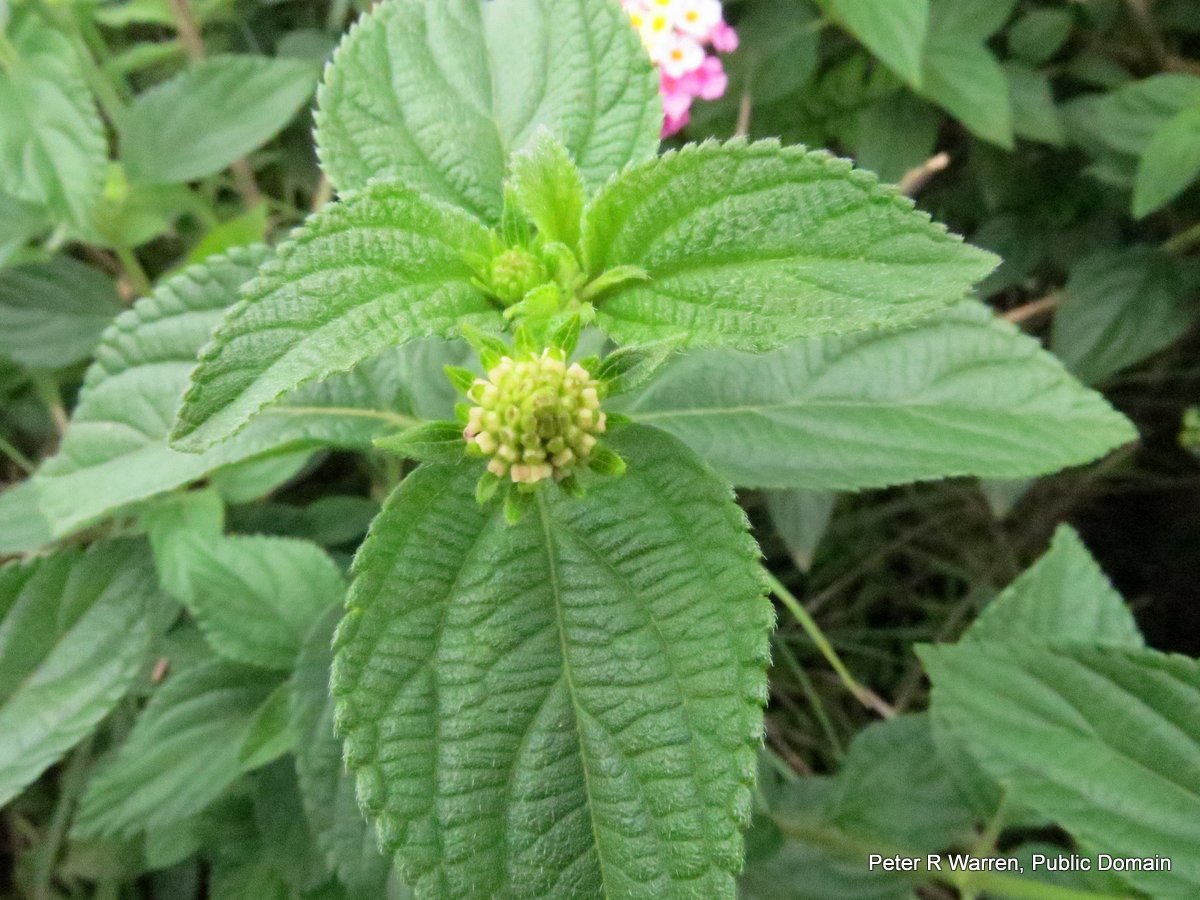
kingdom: Plantae
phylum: Tracheophyta
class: Magnoliopsida
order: Lamiales
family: Verbenaceae
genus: Lantana
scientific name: Lantana camara
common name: Lantana
